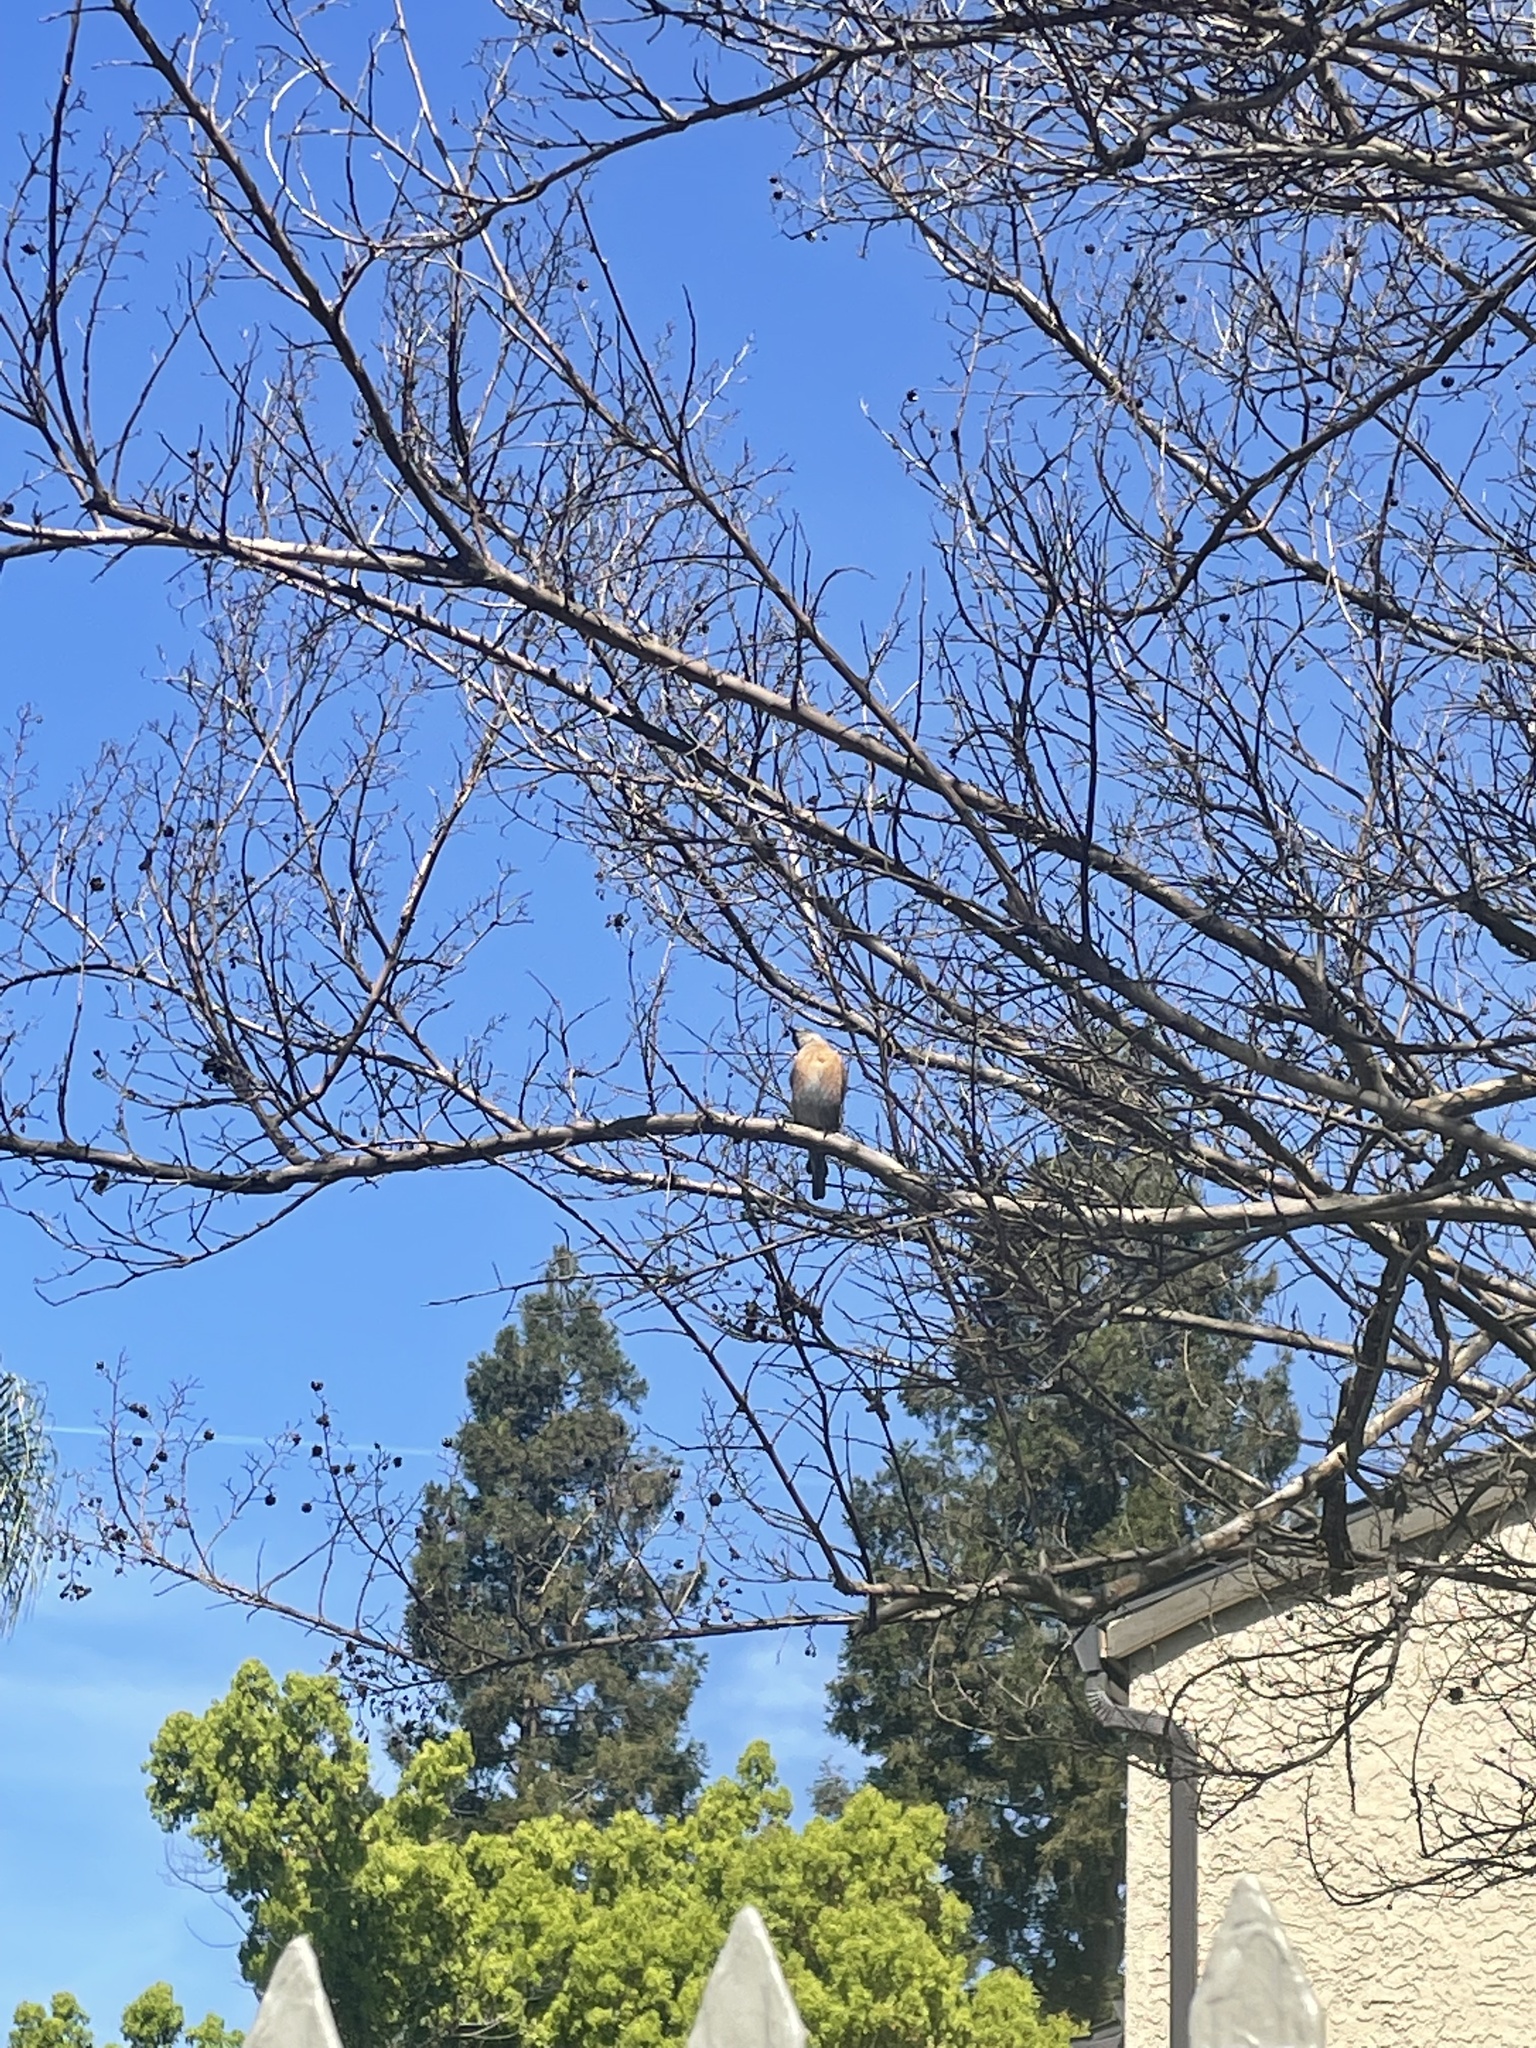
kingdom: Animalia
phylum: Chordata
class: Aves
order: Passeriformes
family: Turdidae
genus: Sialia
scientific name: Sialia mexicana
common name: Western bluebird
